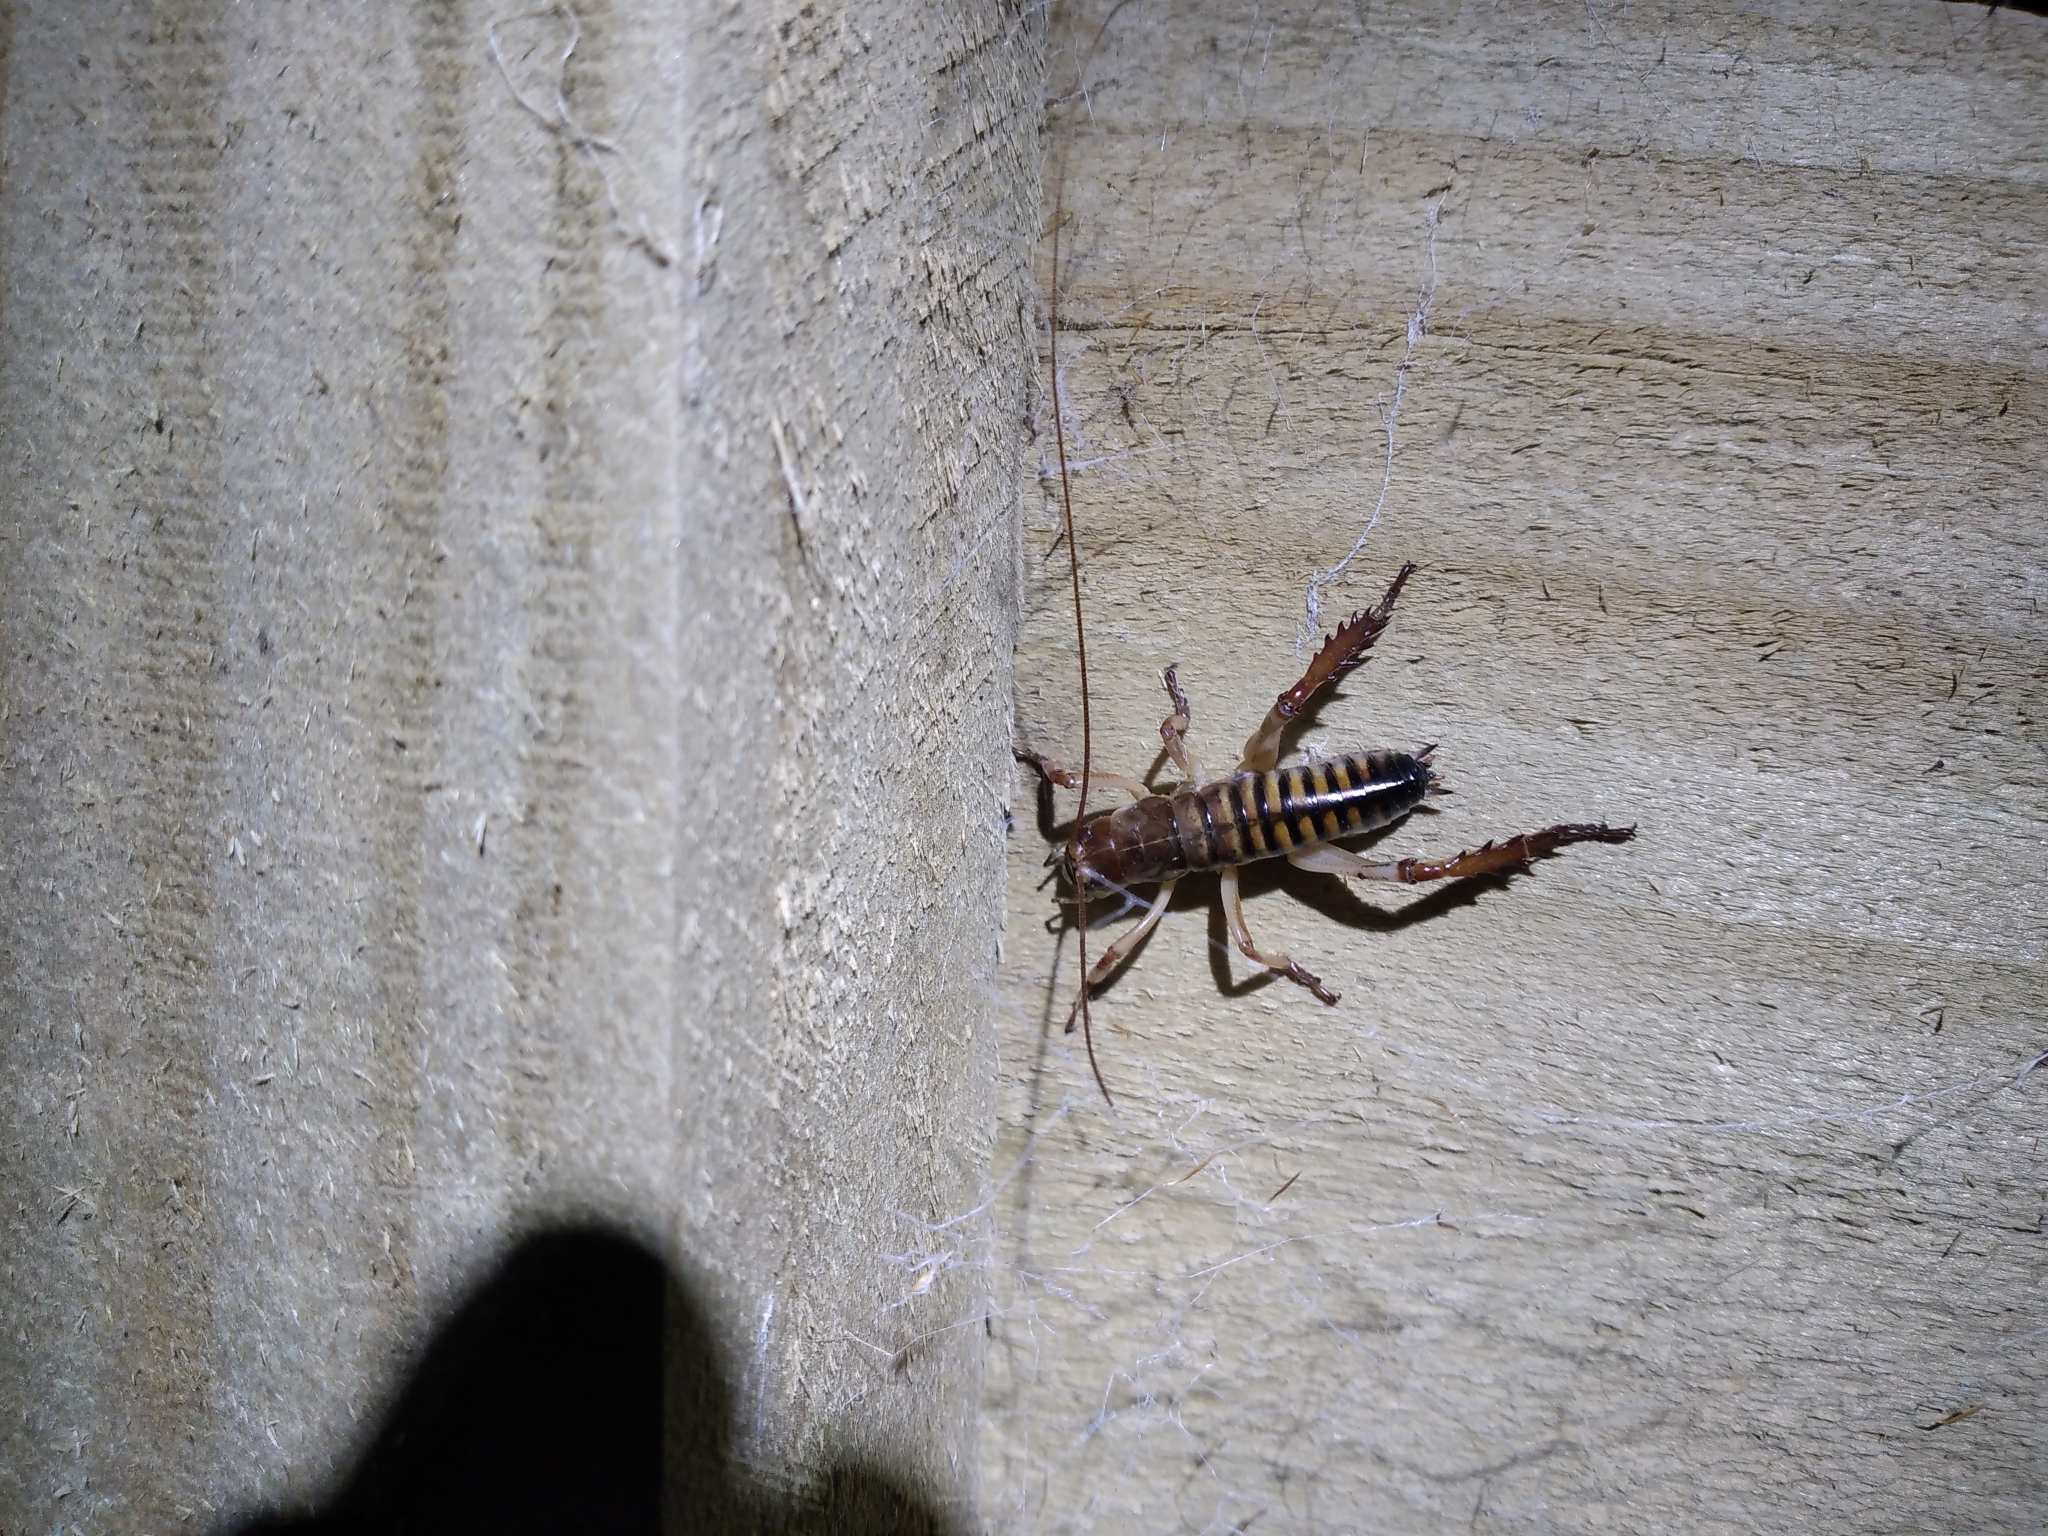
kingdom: Animalia
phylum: Arthropoda
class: Insecta
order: Orthoptera
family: Anostostomatidae
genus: Hemideina
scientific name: Hemideina crassidens
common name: Wellington tree weta
